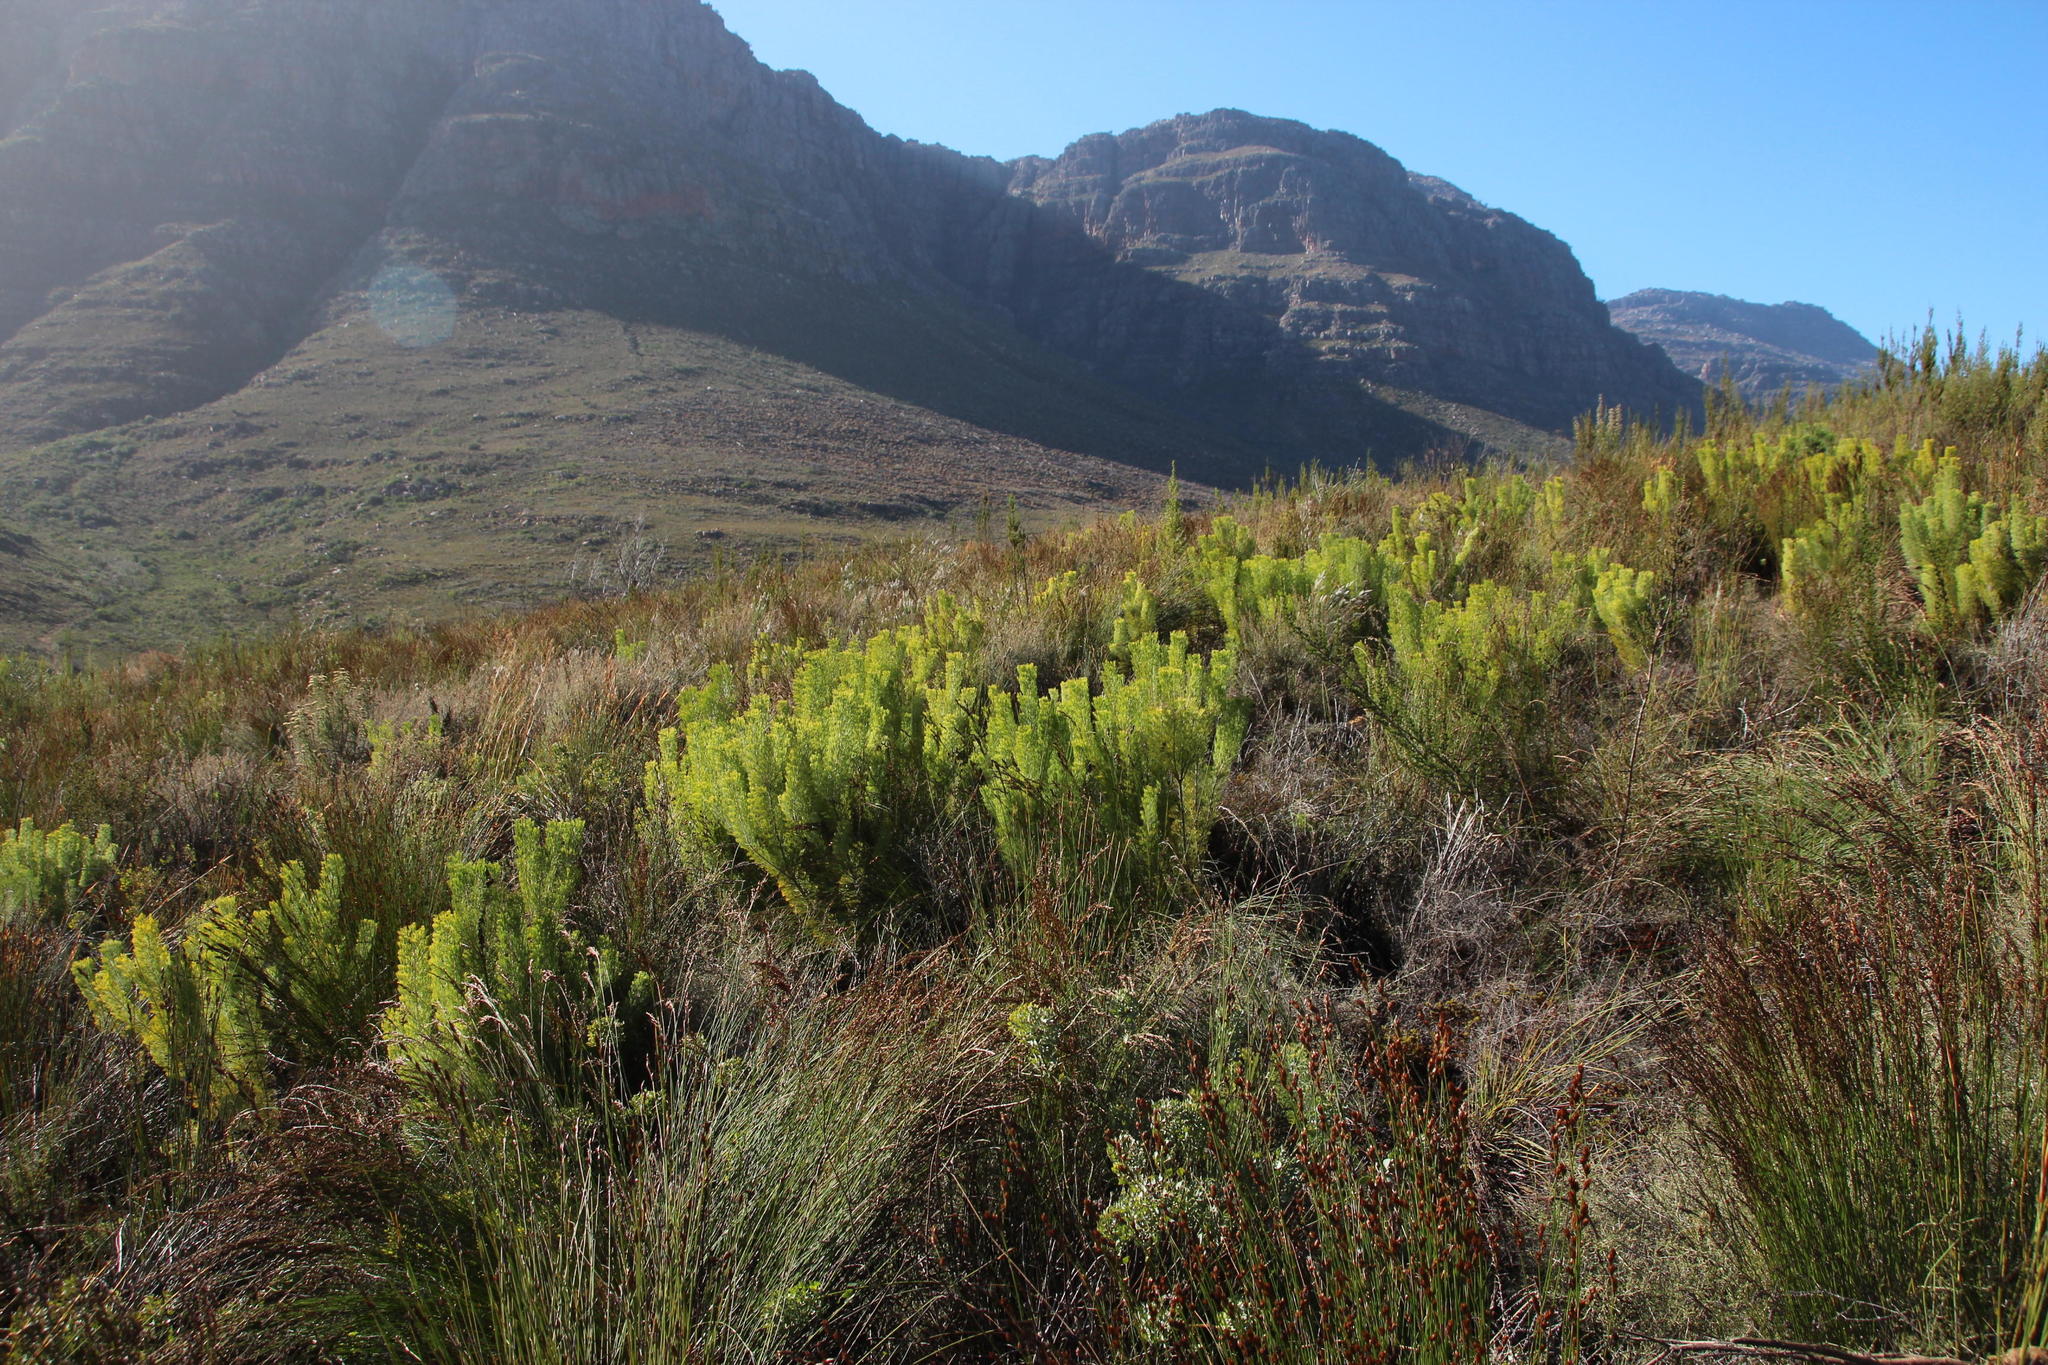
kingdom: Plantae
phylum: Tracheophyta
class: Magnoliopsida
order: Proteales
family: Proteaceae
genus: Paranomus
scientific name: Paranomus bracteolaris
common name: Bokkeveld tree sceptre
